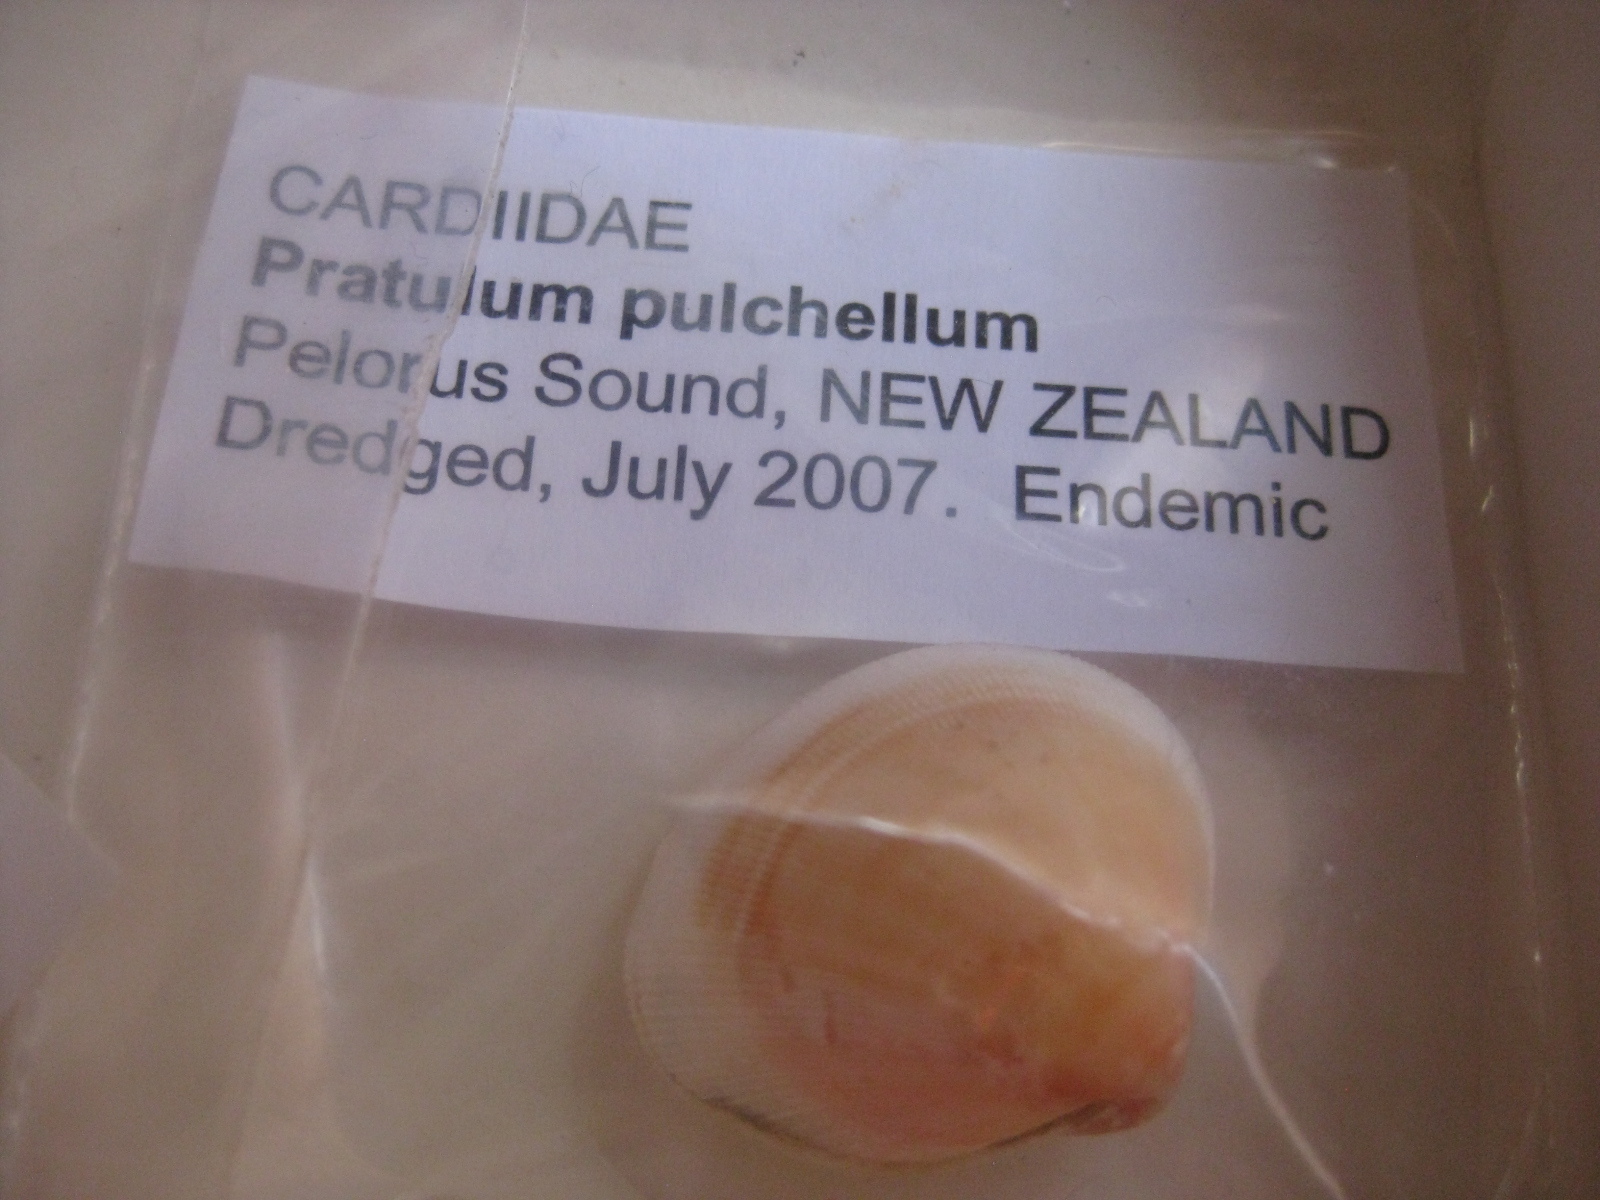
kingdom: Animalia
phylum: Mollusca
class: Bivalvia
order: Cardiida
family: Cardiidae
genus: Pratulum
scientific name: Pratulum pulchellum
